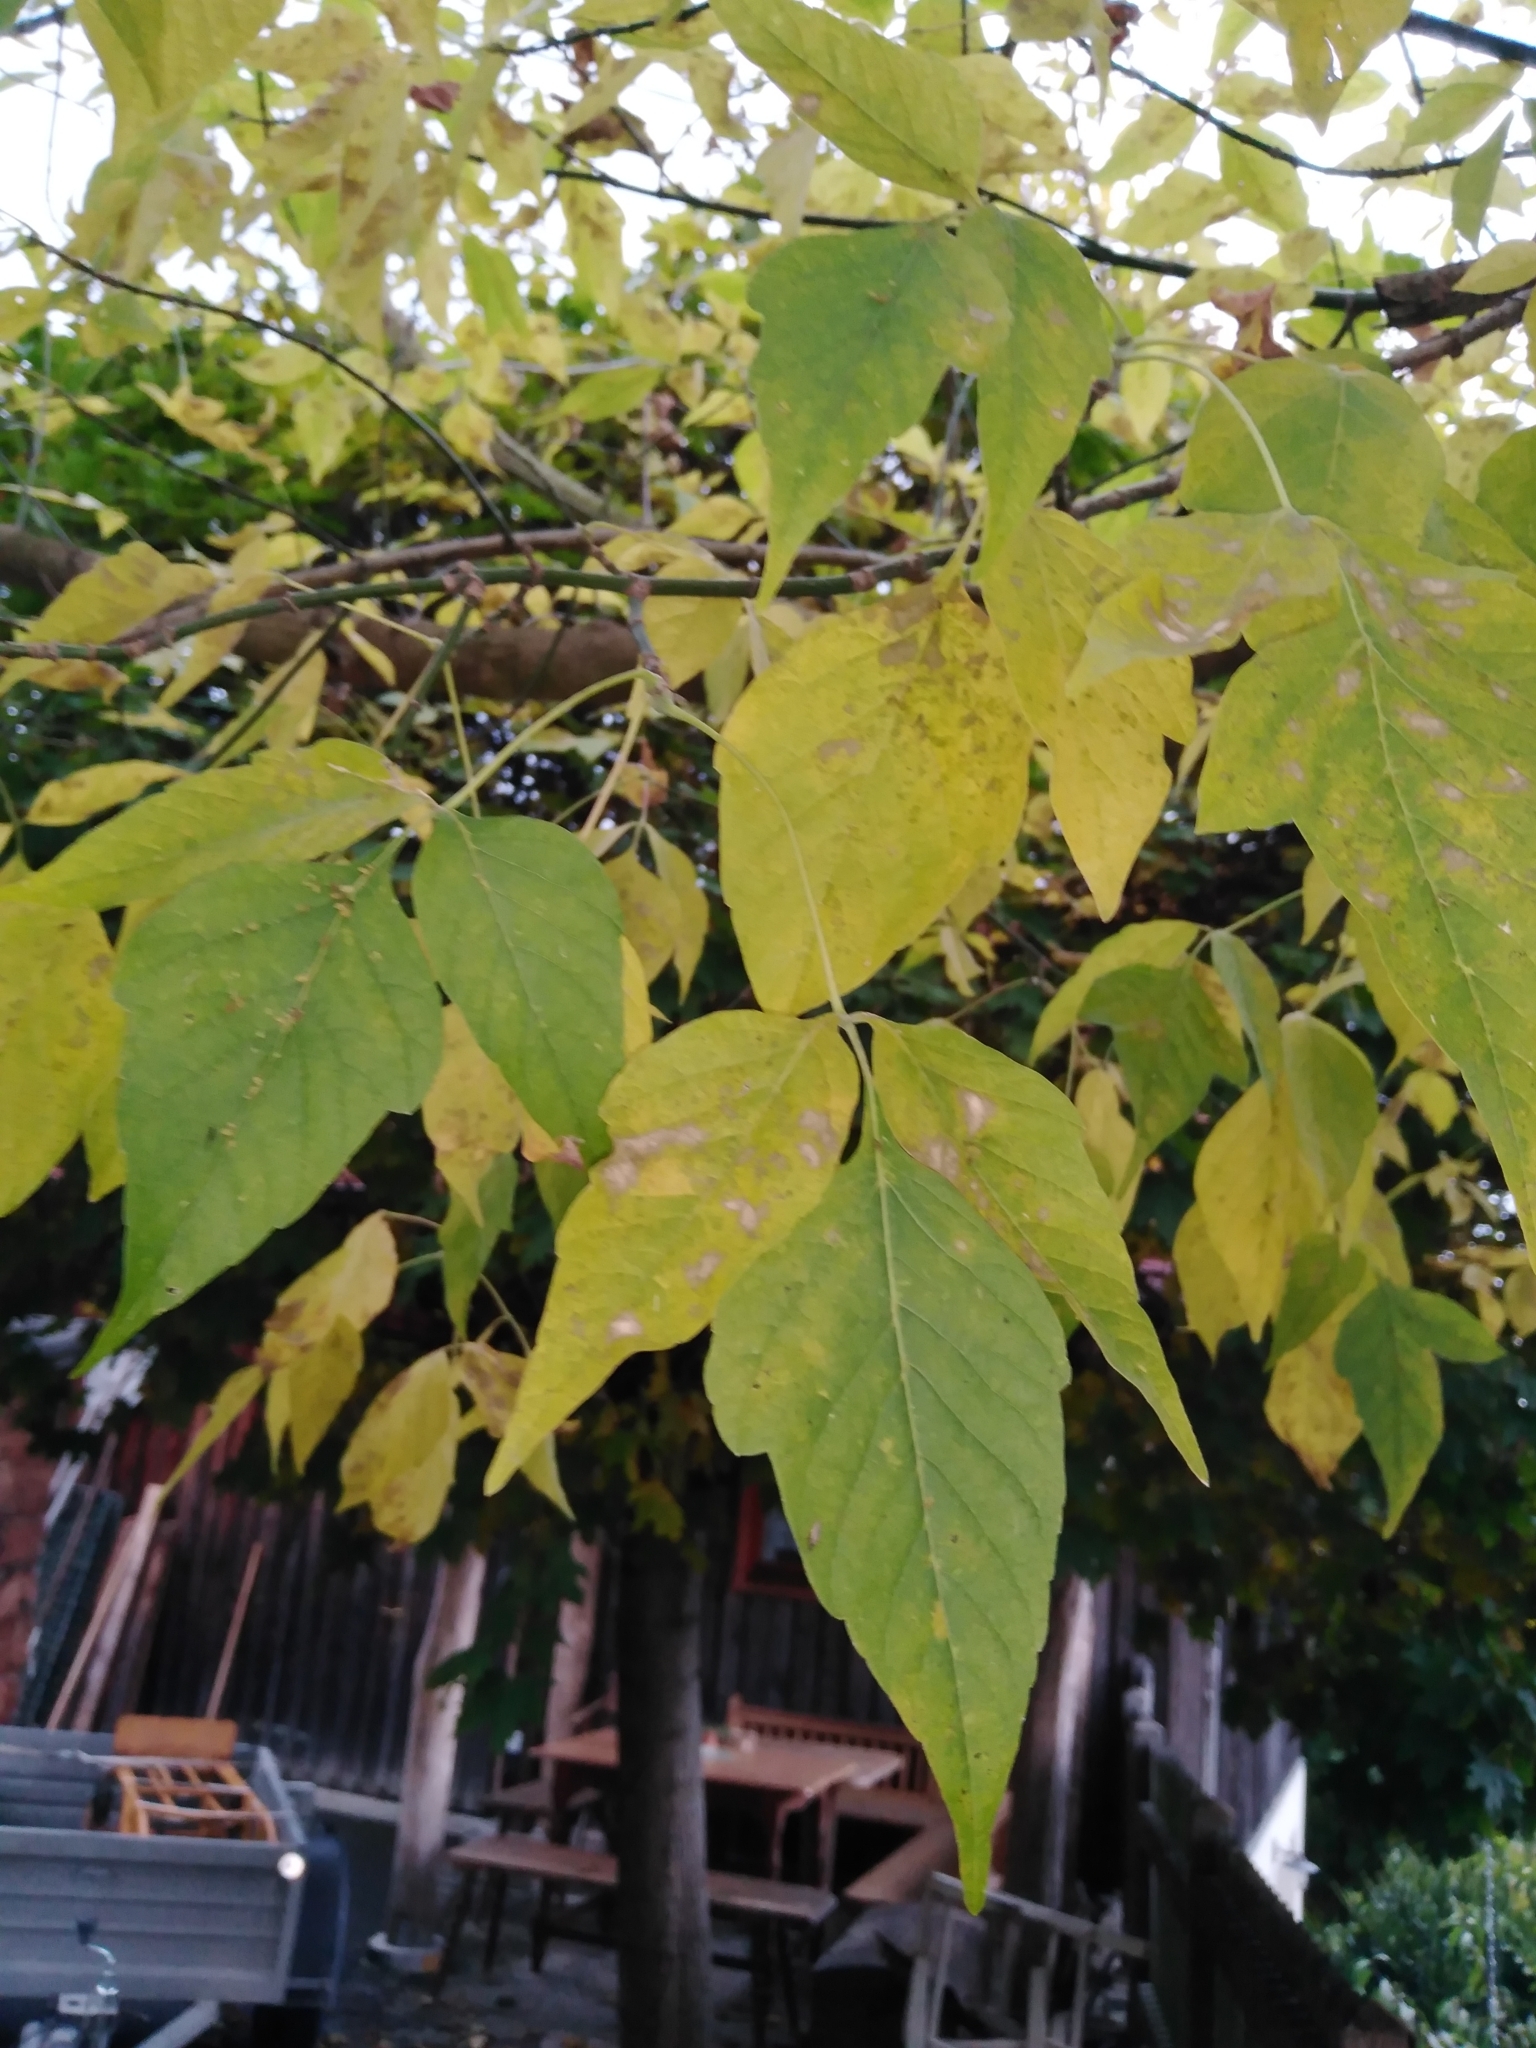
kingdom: Plantae
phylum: Tracheophyta
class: Magnoliopsida
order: Sapindales
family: Sapindaceae
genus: Acer
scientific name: Acer negundo
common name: Ashleaf maple
